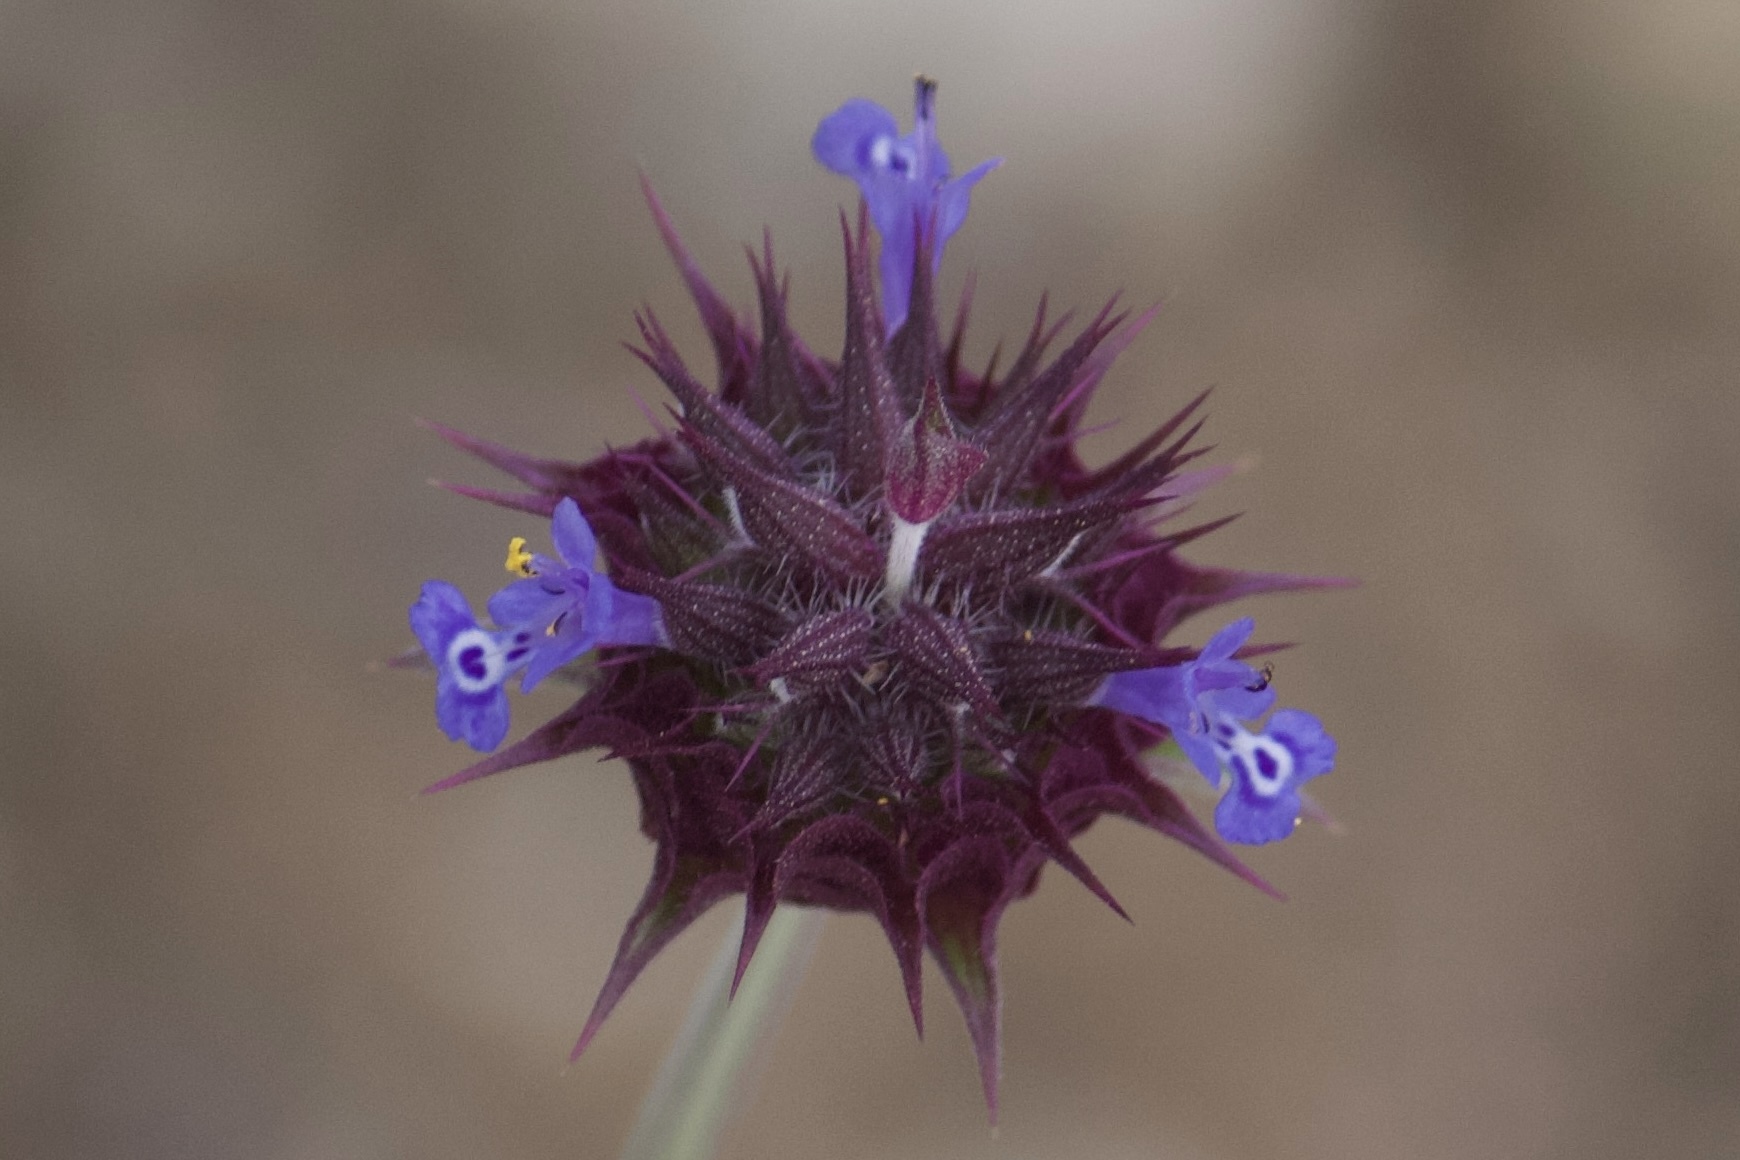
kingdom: Plantae
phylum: Tracheophyta
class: Magnoliopsida
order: Lamiales
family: Lamiaceae
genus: Salvia
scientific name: Salvia columbariae
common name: Chia
